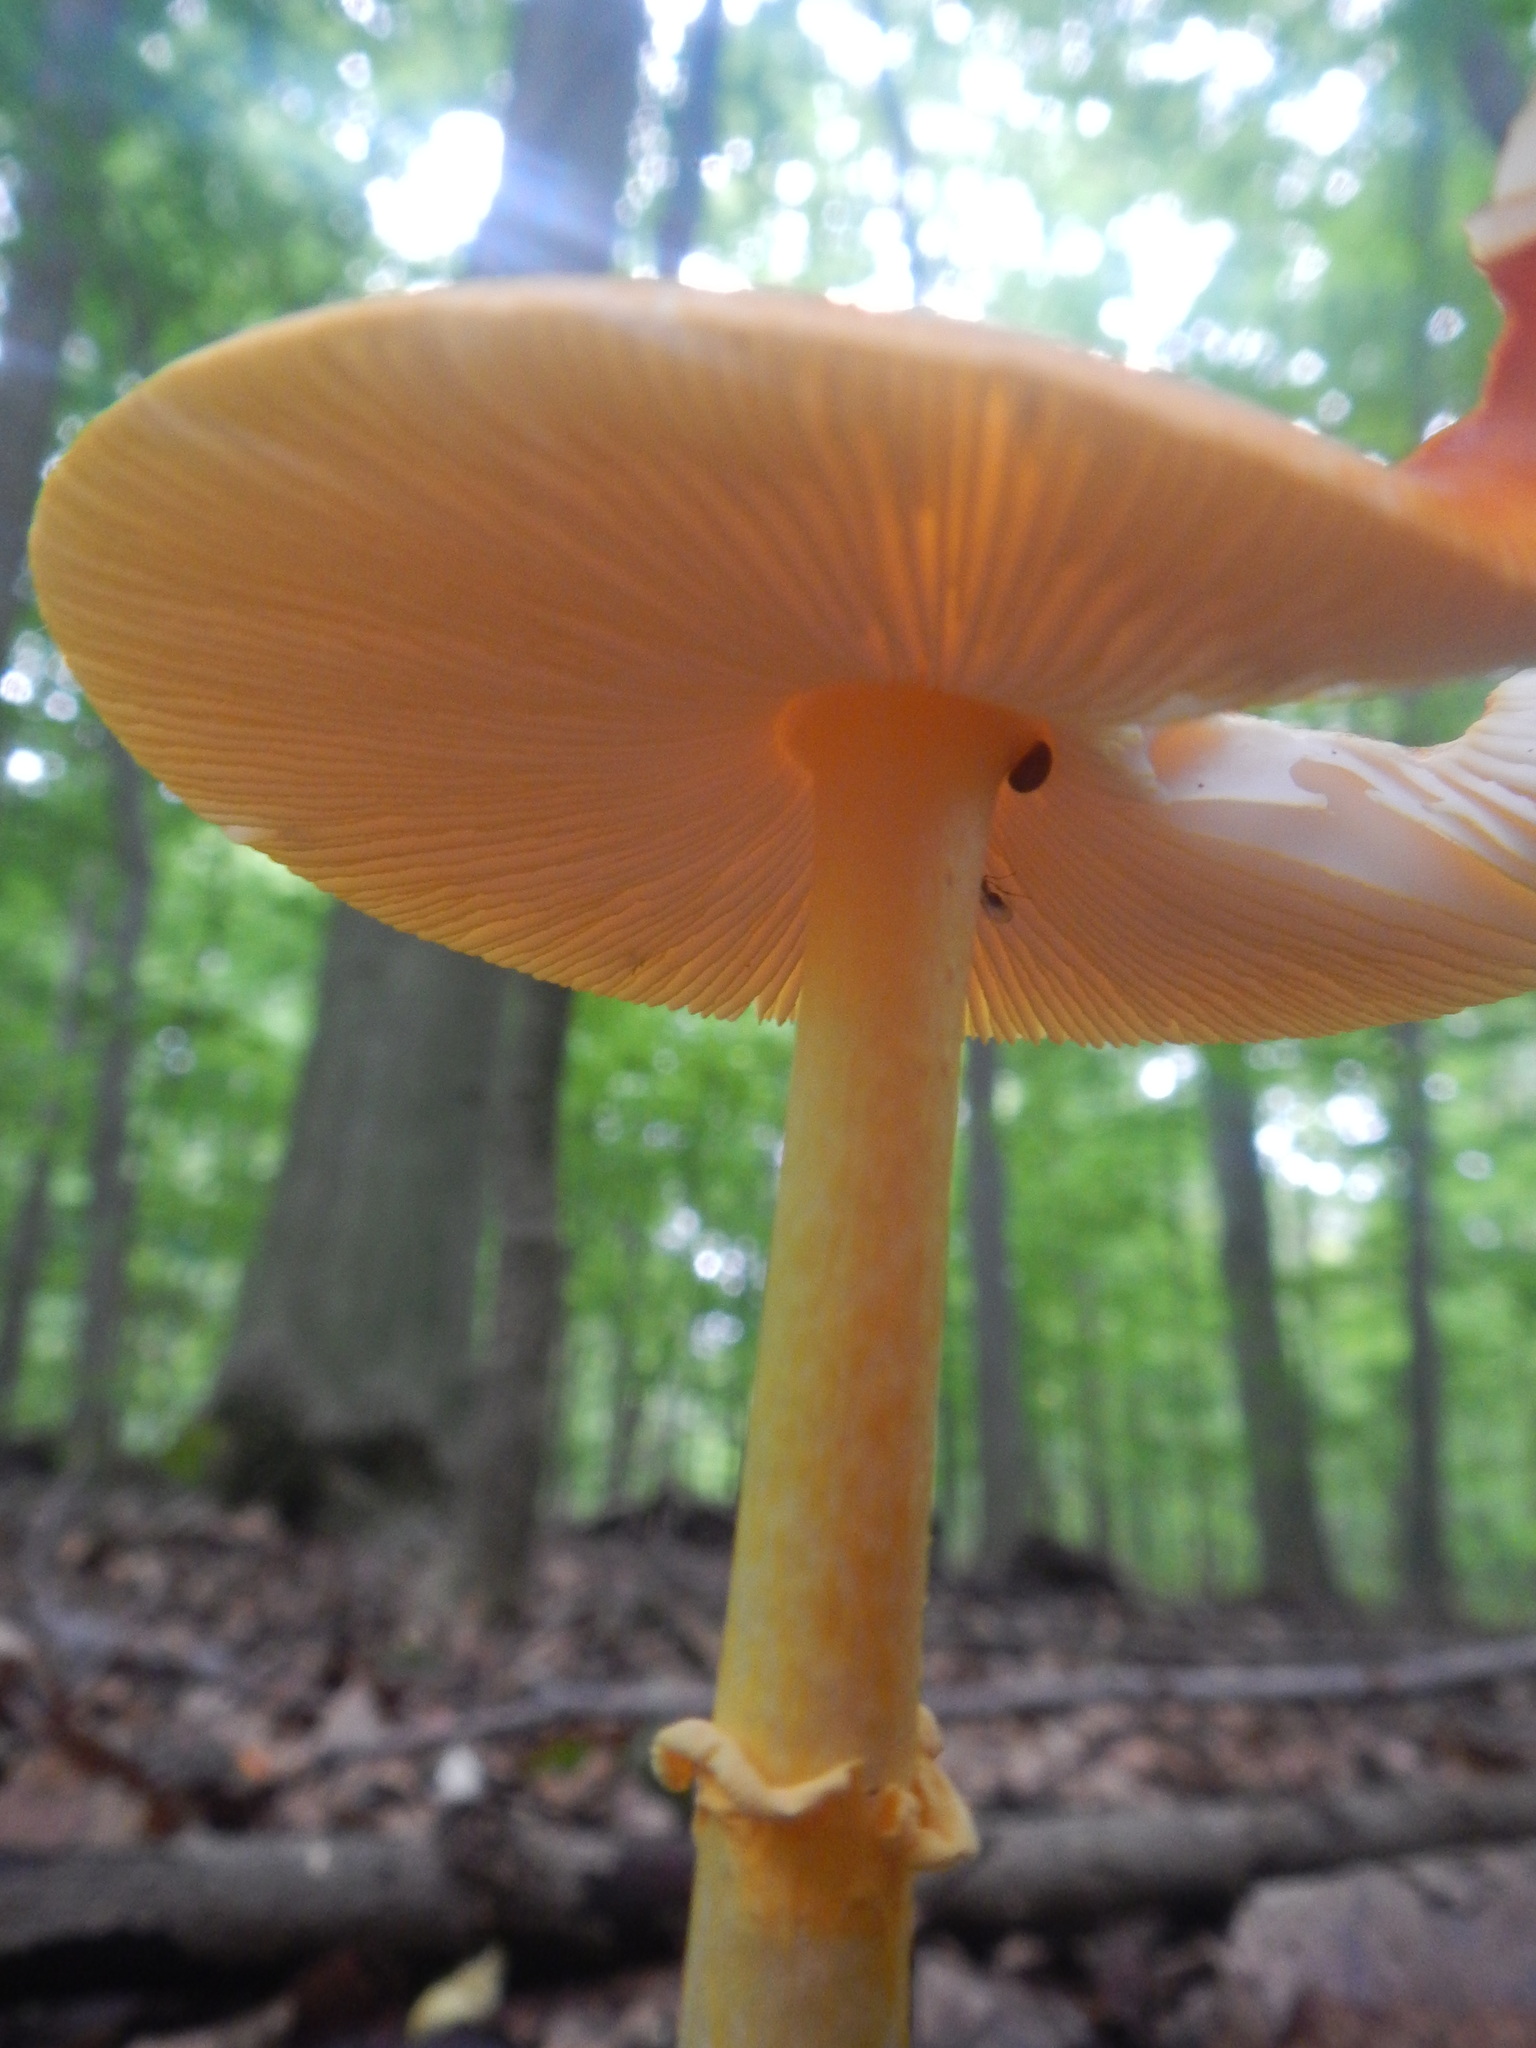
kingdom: Fungi
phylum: Basidiomycota
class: Agaricomycetes
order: Agaricales
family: Amanitaceae
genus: Amanita
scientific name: Amanita flavoconia
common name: Yellow patches
